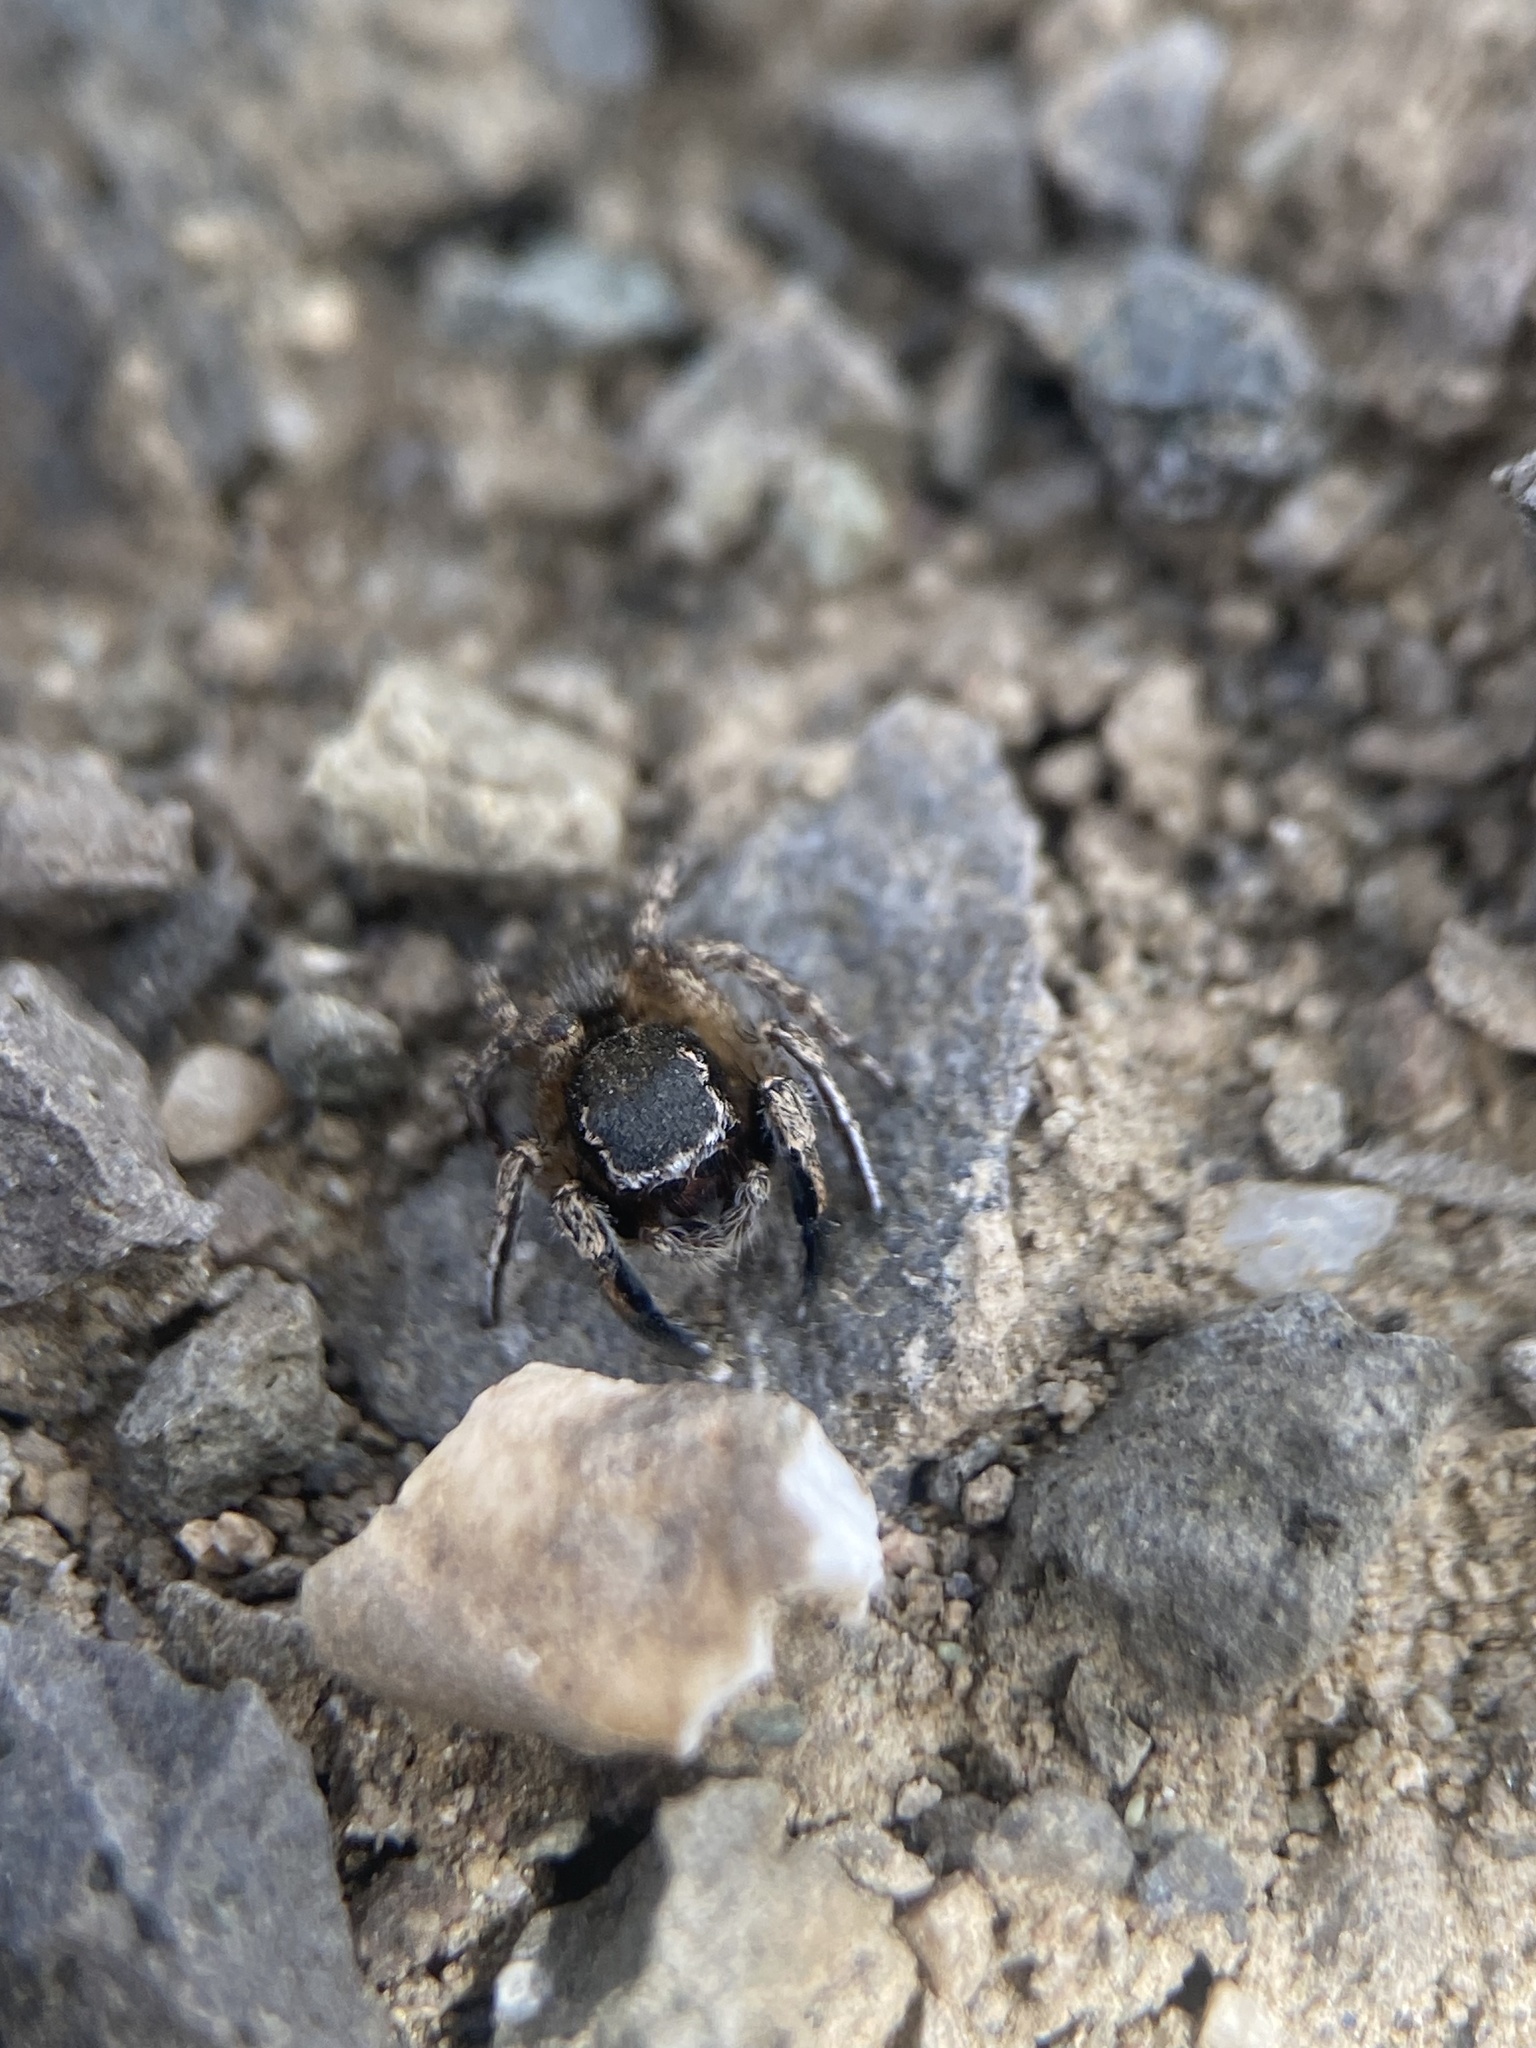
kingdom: Animalia
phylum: Arthropoda
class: Arachnida
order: Araneae
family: Salticidae
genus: Habronattus
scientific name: Habronattus hirsutus
